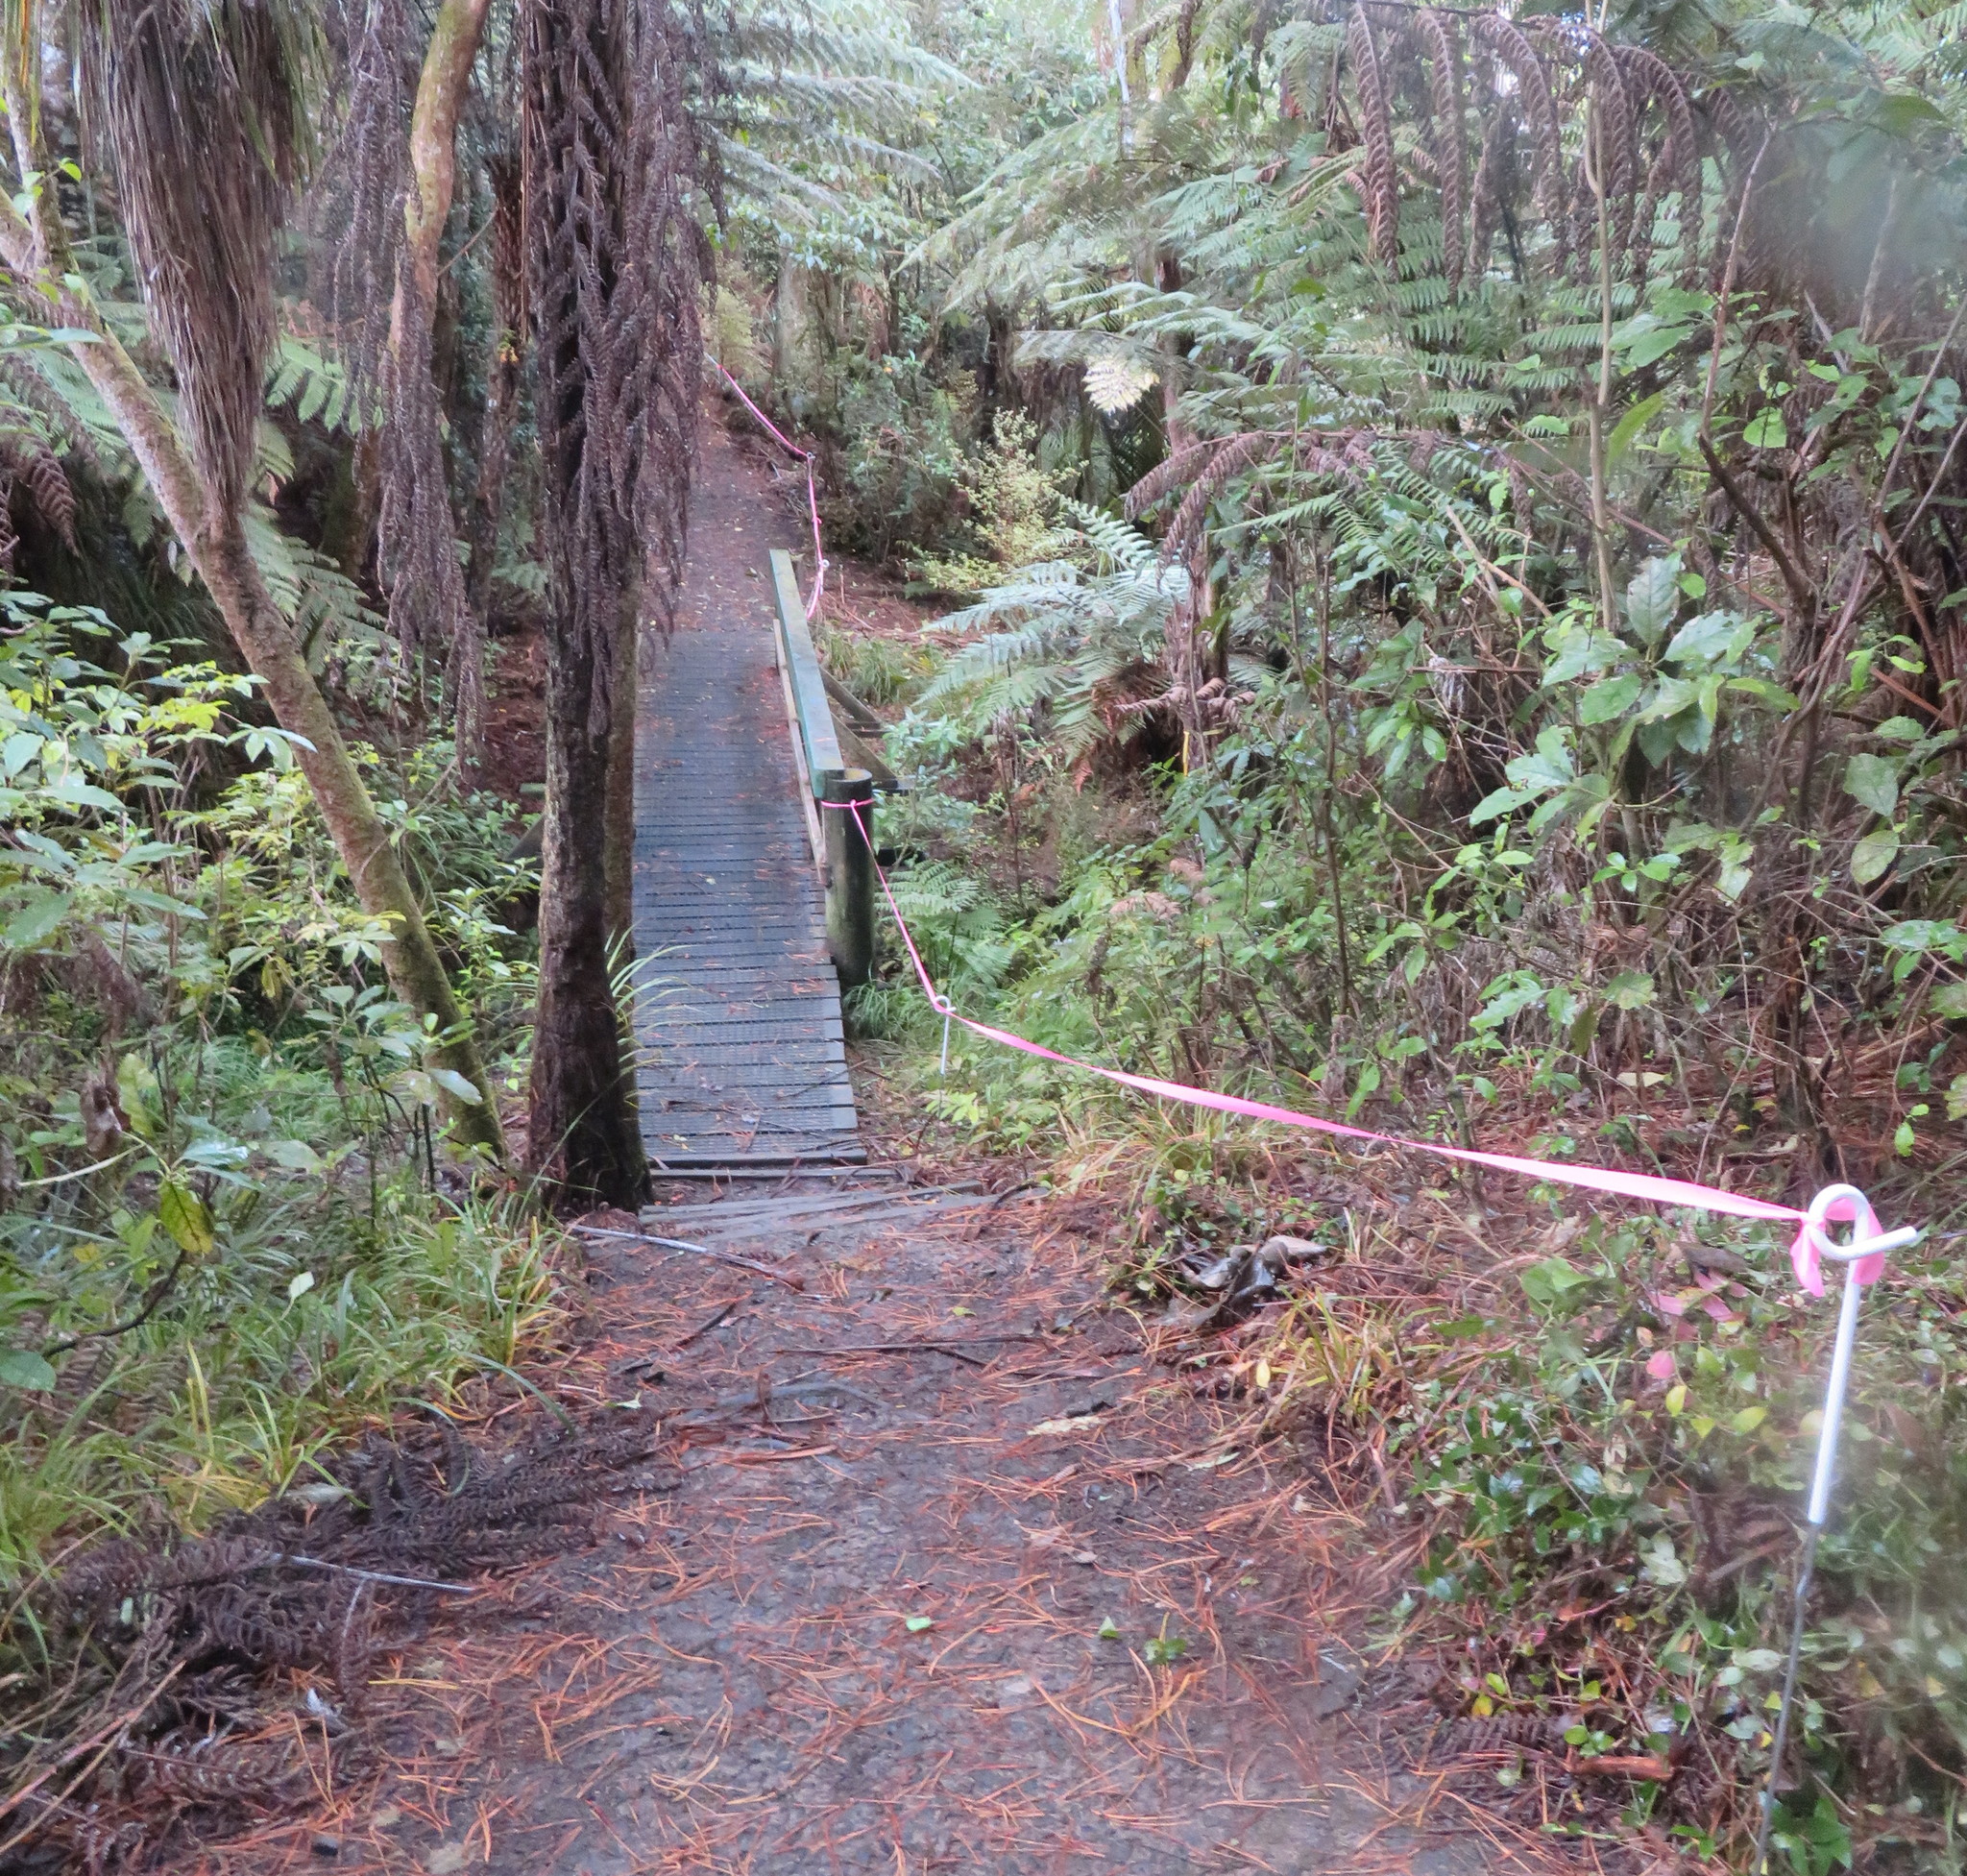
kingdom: Plantae
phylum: Tracheophyta
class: Liliopsida
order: Commelinales
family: Commelinaceae
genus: Tradescantia
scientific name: Tradescantia fluminensis
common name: Wandering-jew
